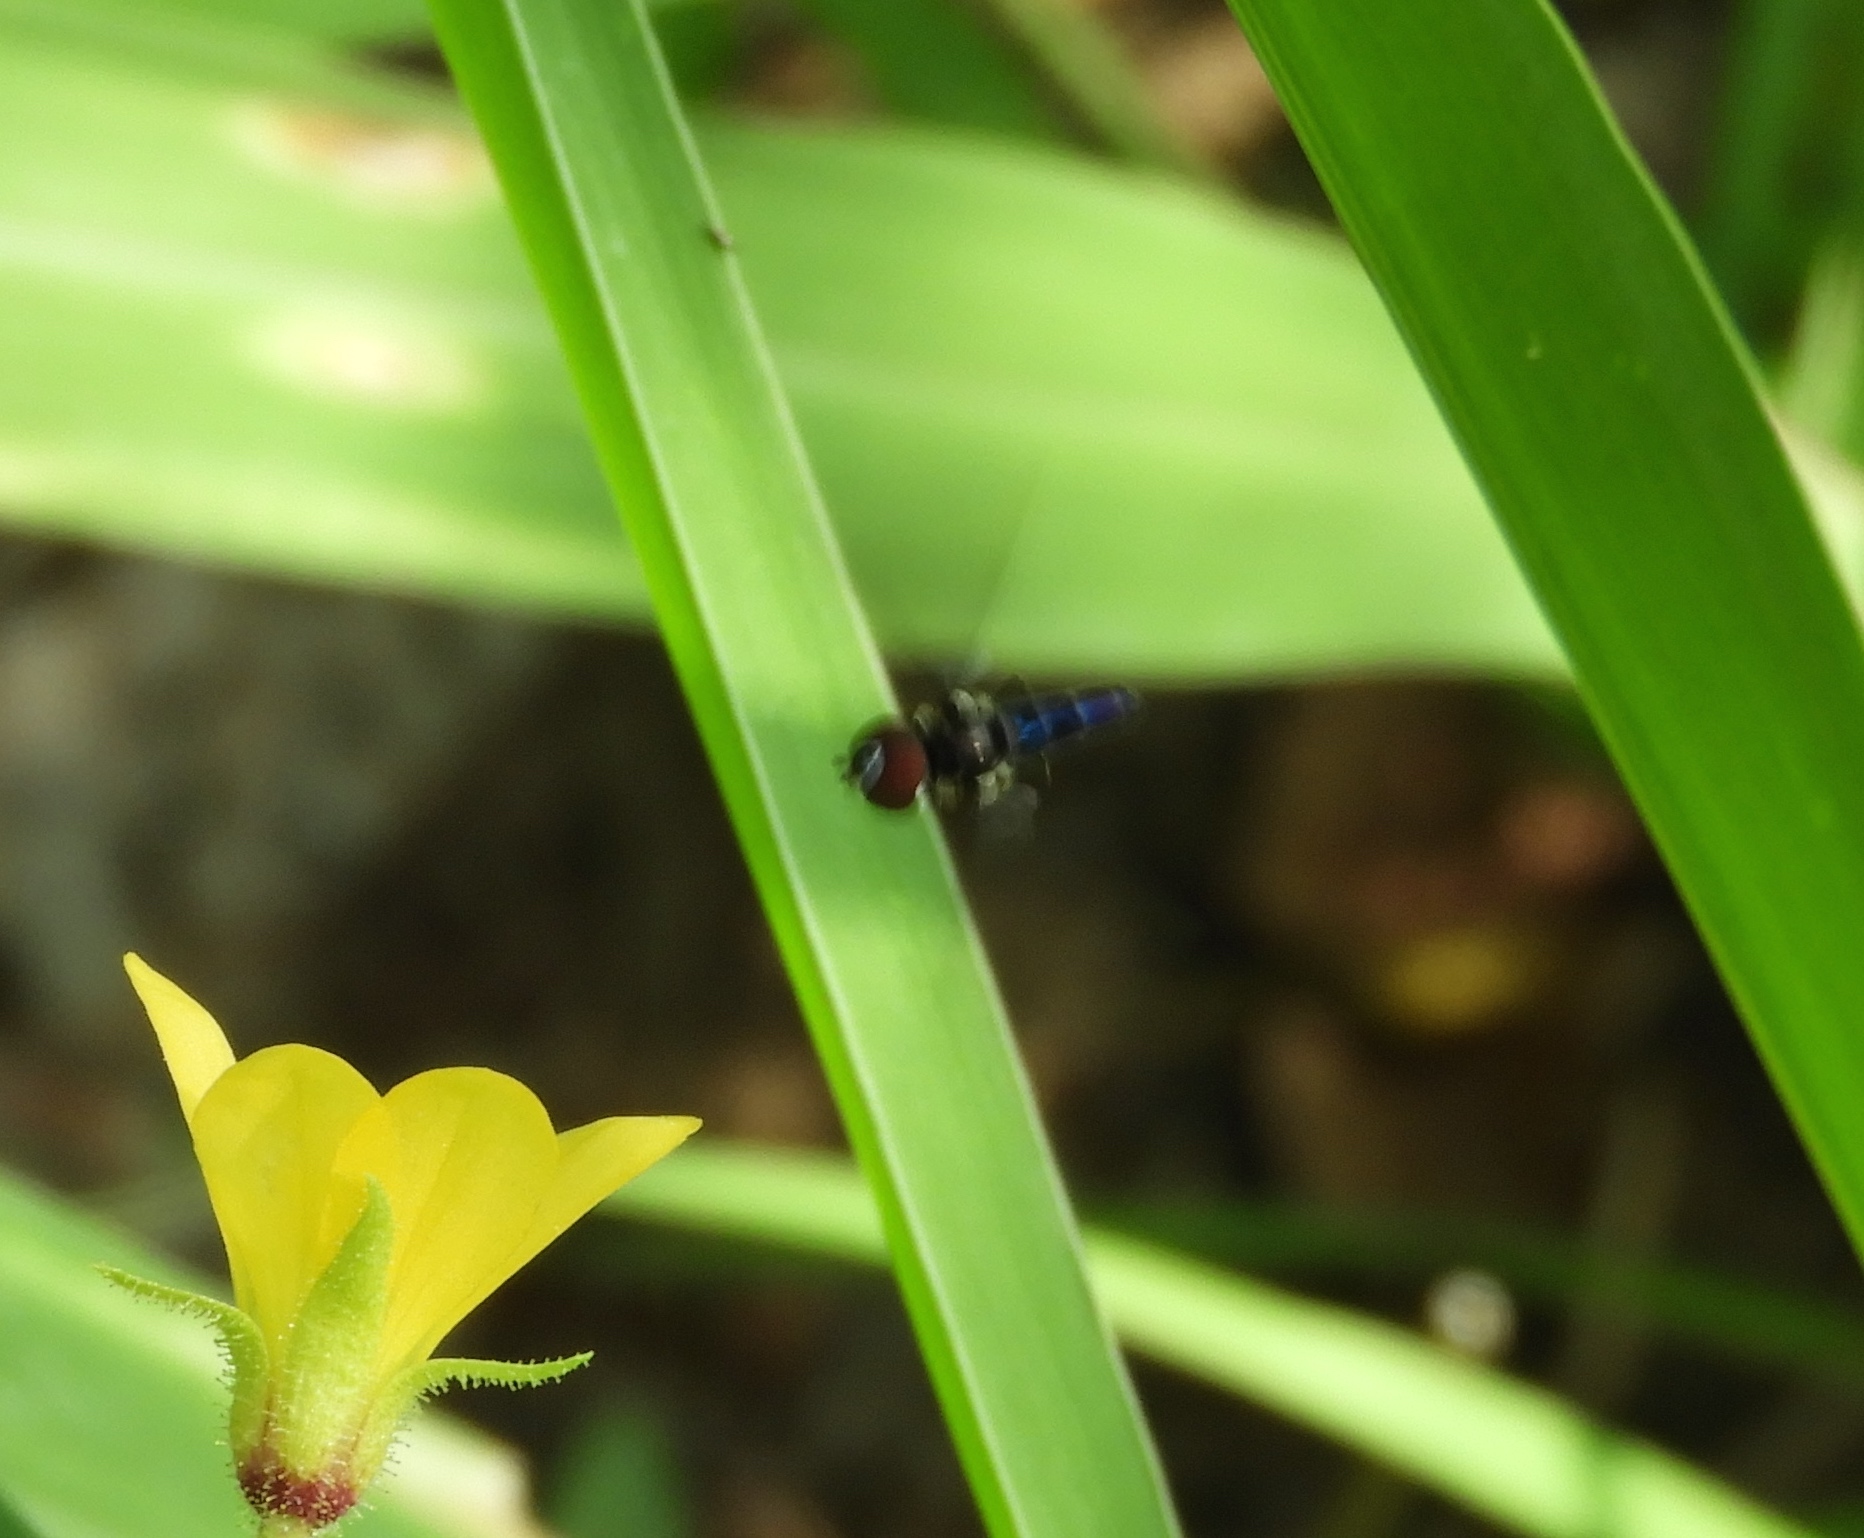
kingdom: Animalia
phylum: Arthropoda
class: Insecta
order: Diptera
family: Syrphidae
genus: Ocyptamus
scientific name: Ocyptamus
